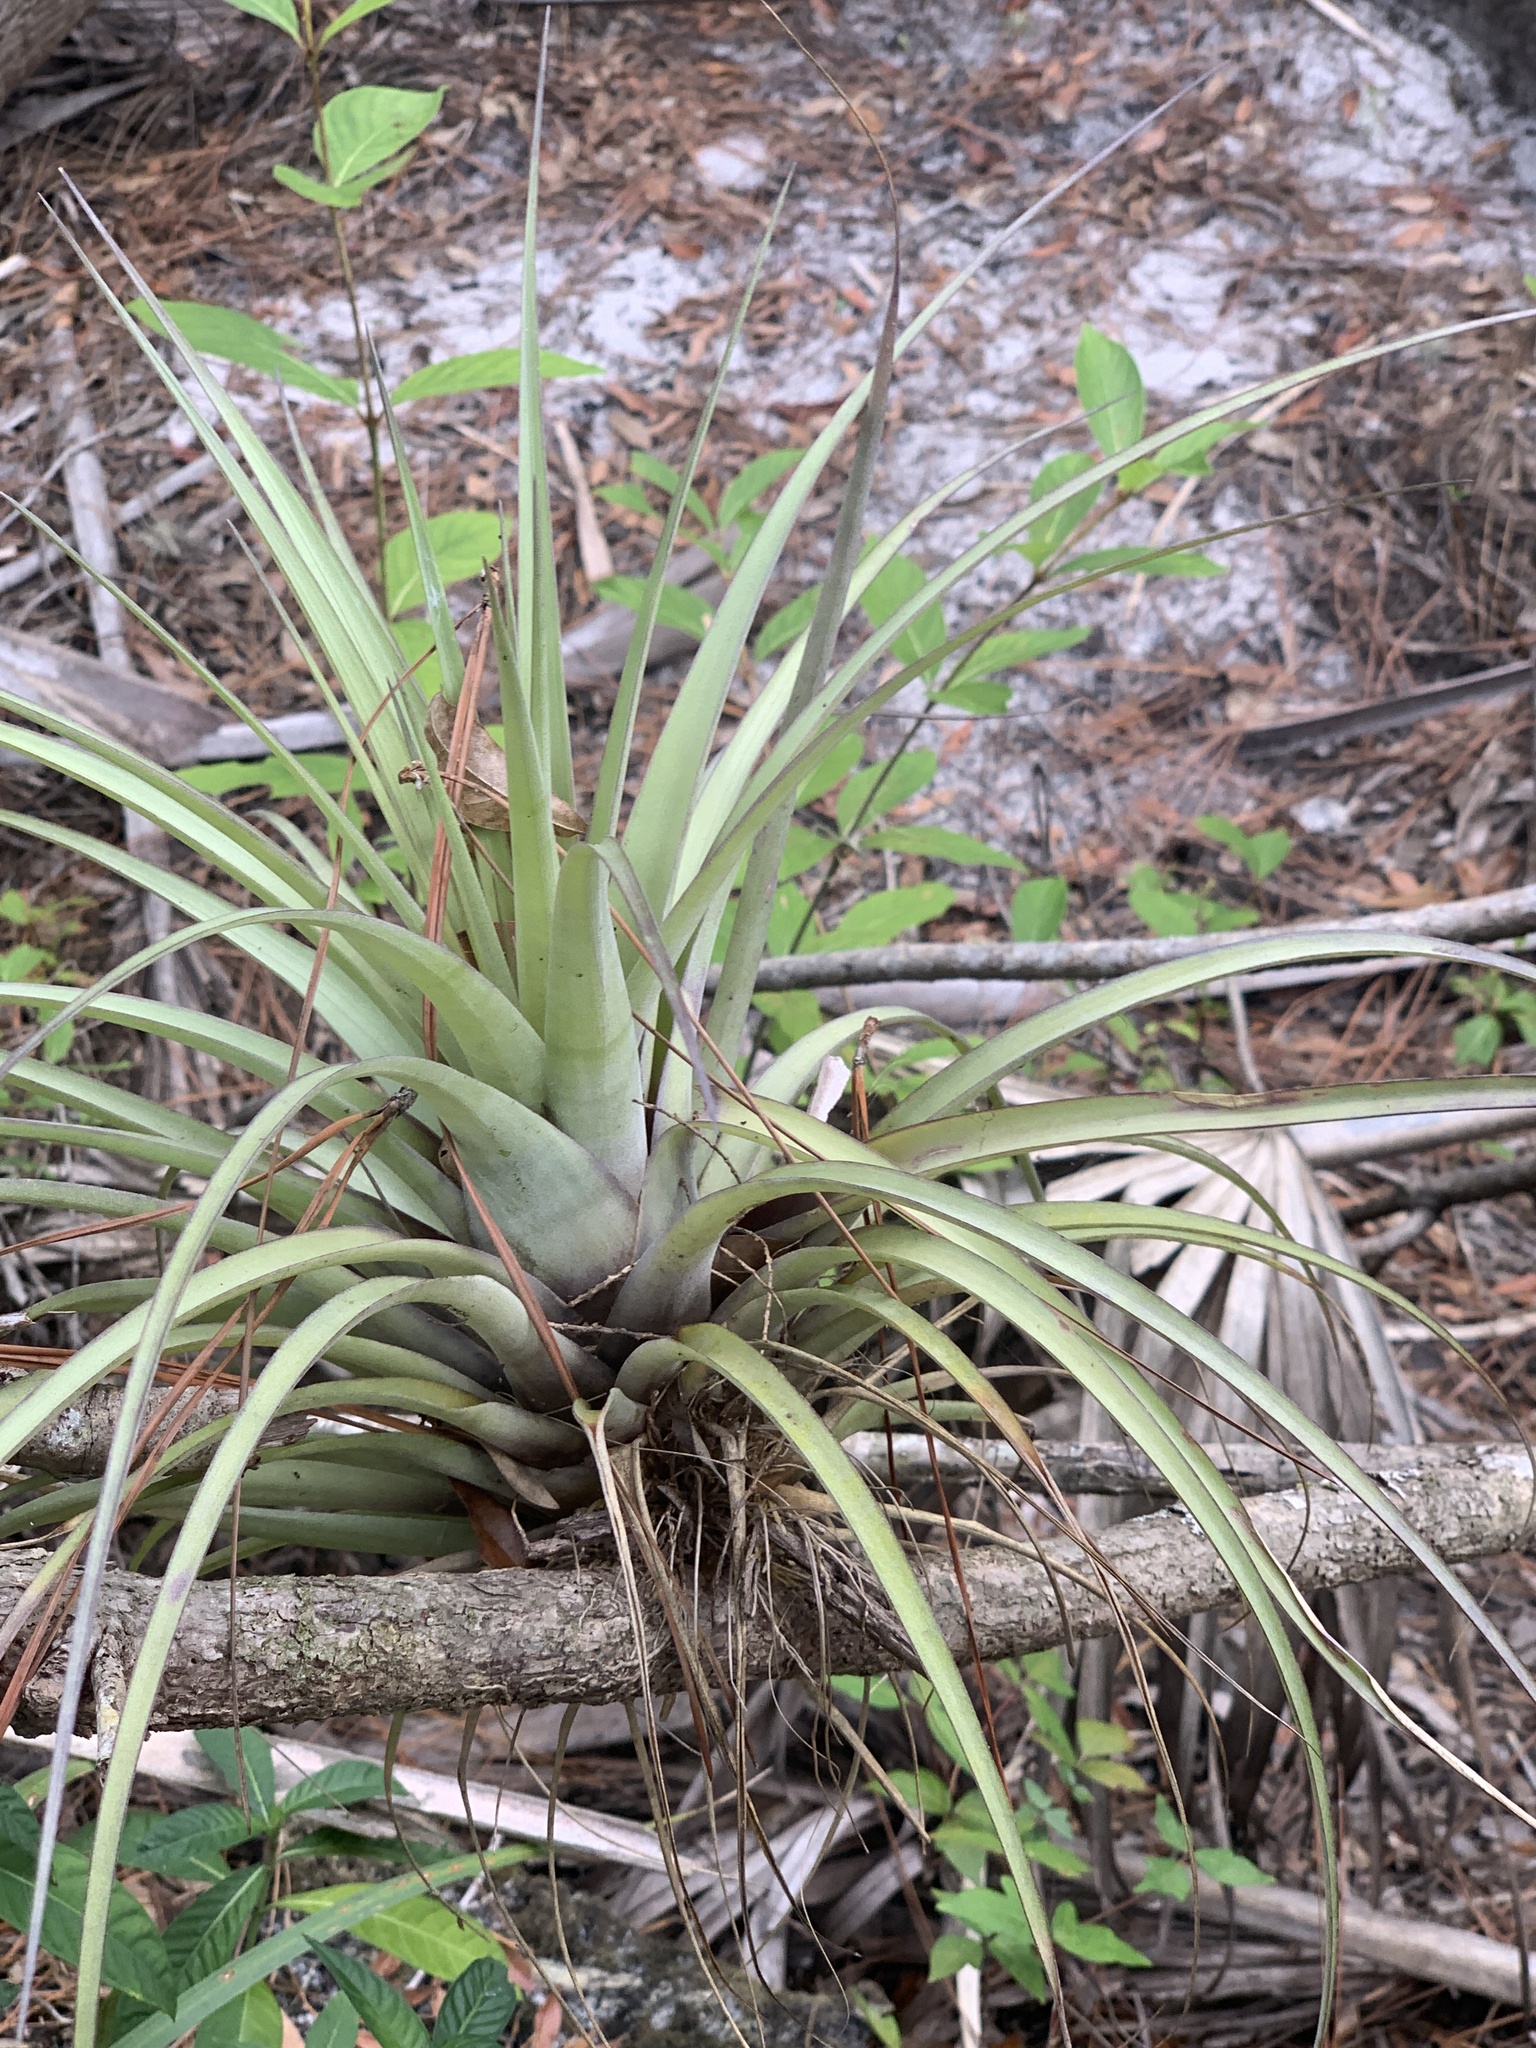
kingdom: Plantae
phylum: Tracheophyta
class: Liliopsida
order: Poales
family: Bromeliaceae
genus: Tillandsia
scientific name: Tillandsia utriculata
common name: Wild pine
